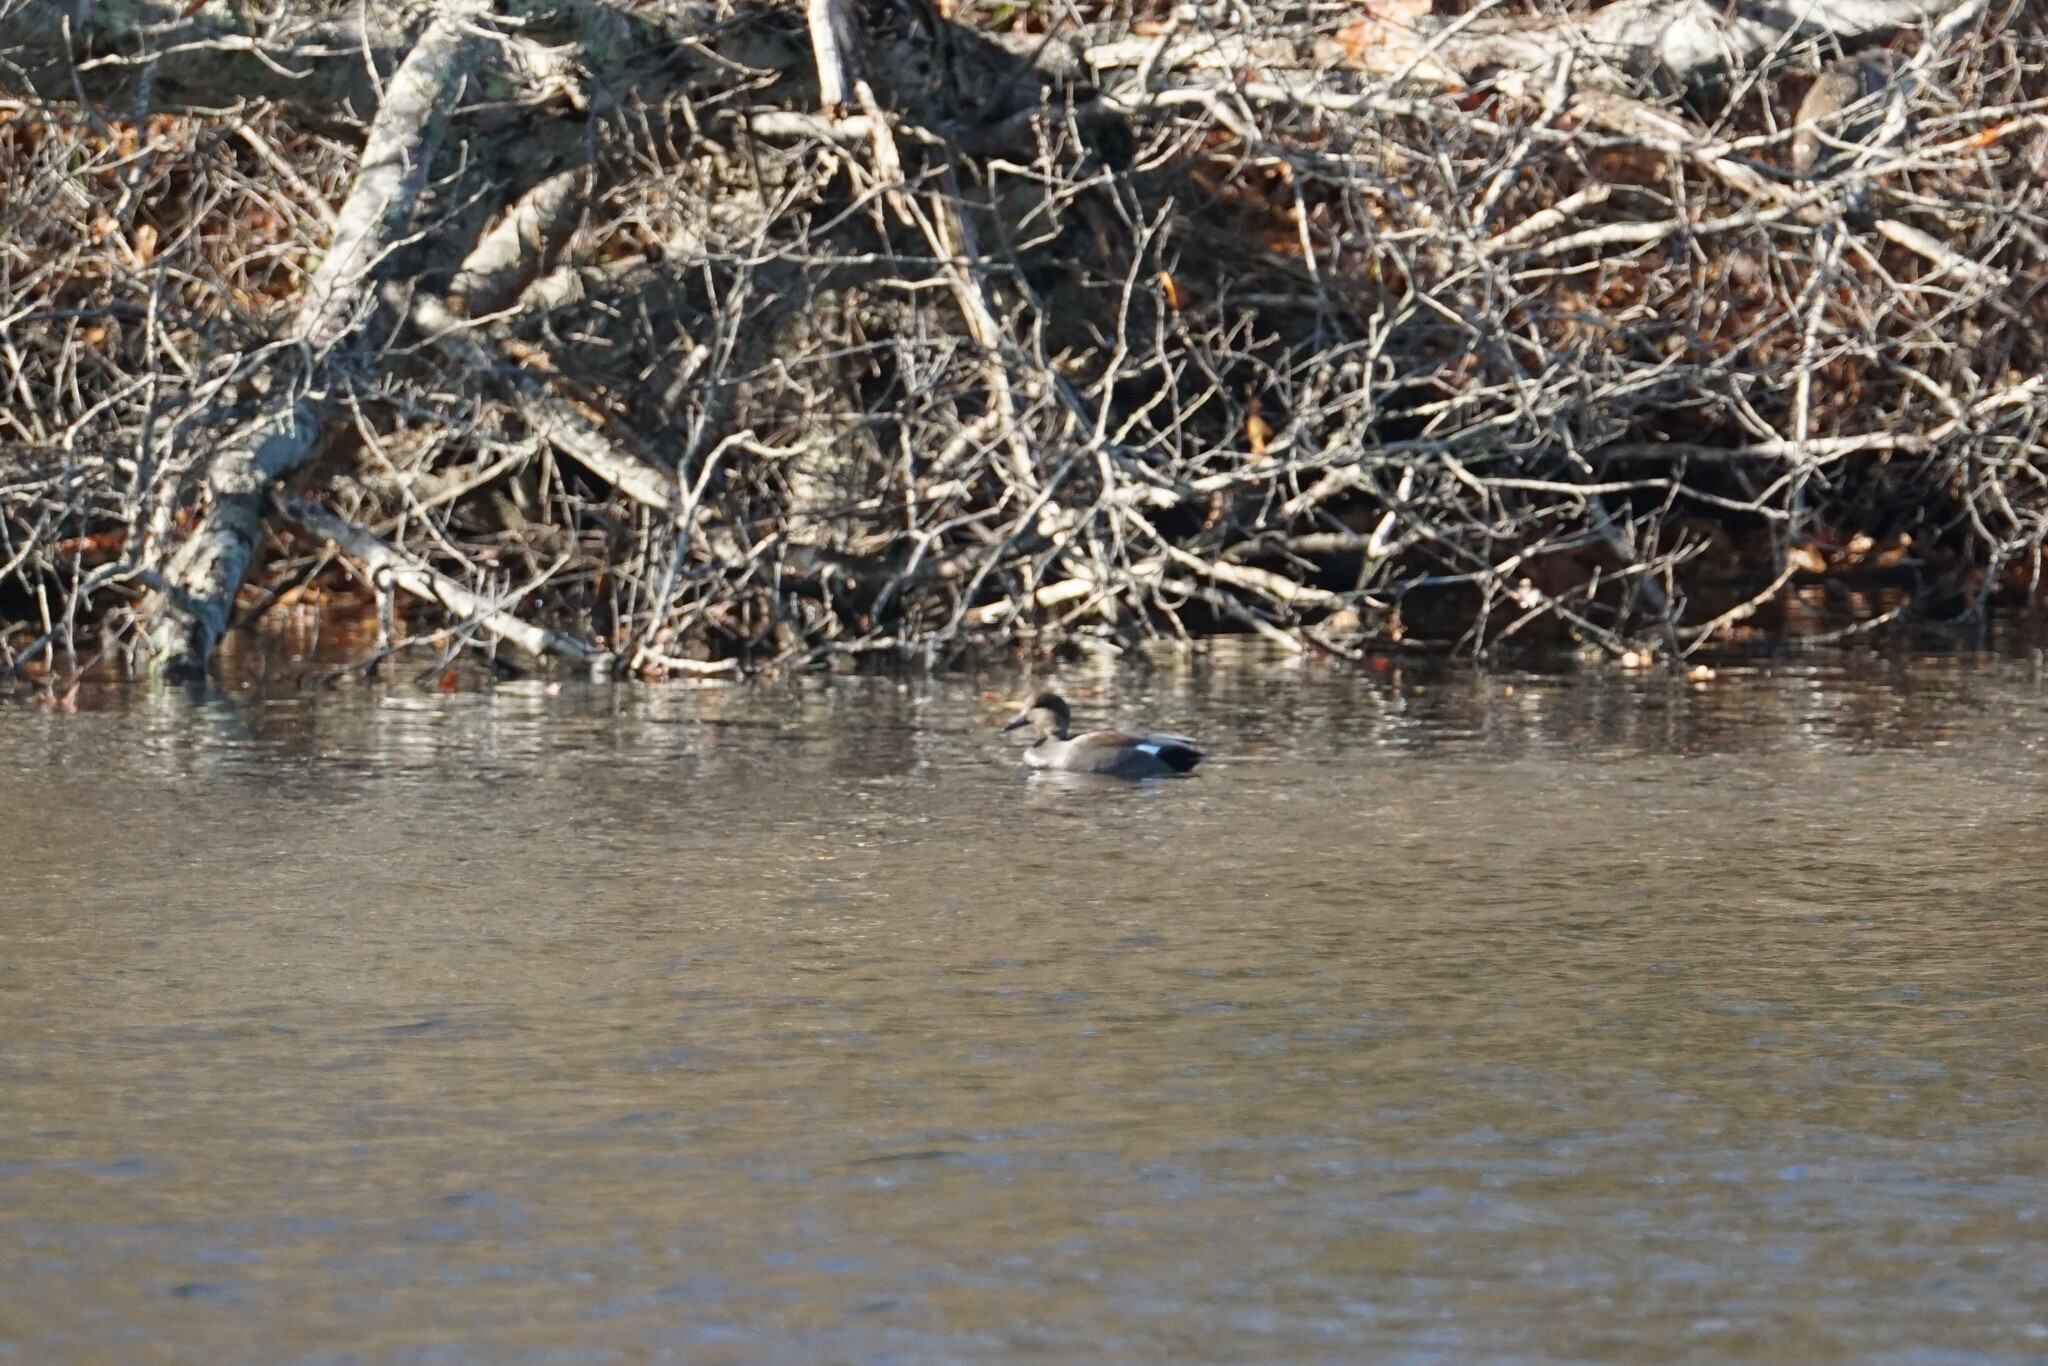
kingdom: Animalia
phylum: Chordata
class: Aves
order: Anseriformes
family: Anatidae
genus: Mareca
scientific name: Mareca strepera
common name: Gadwall
